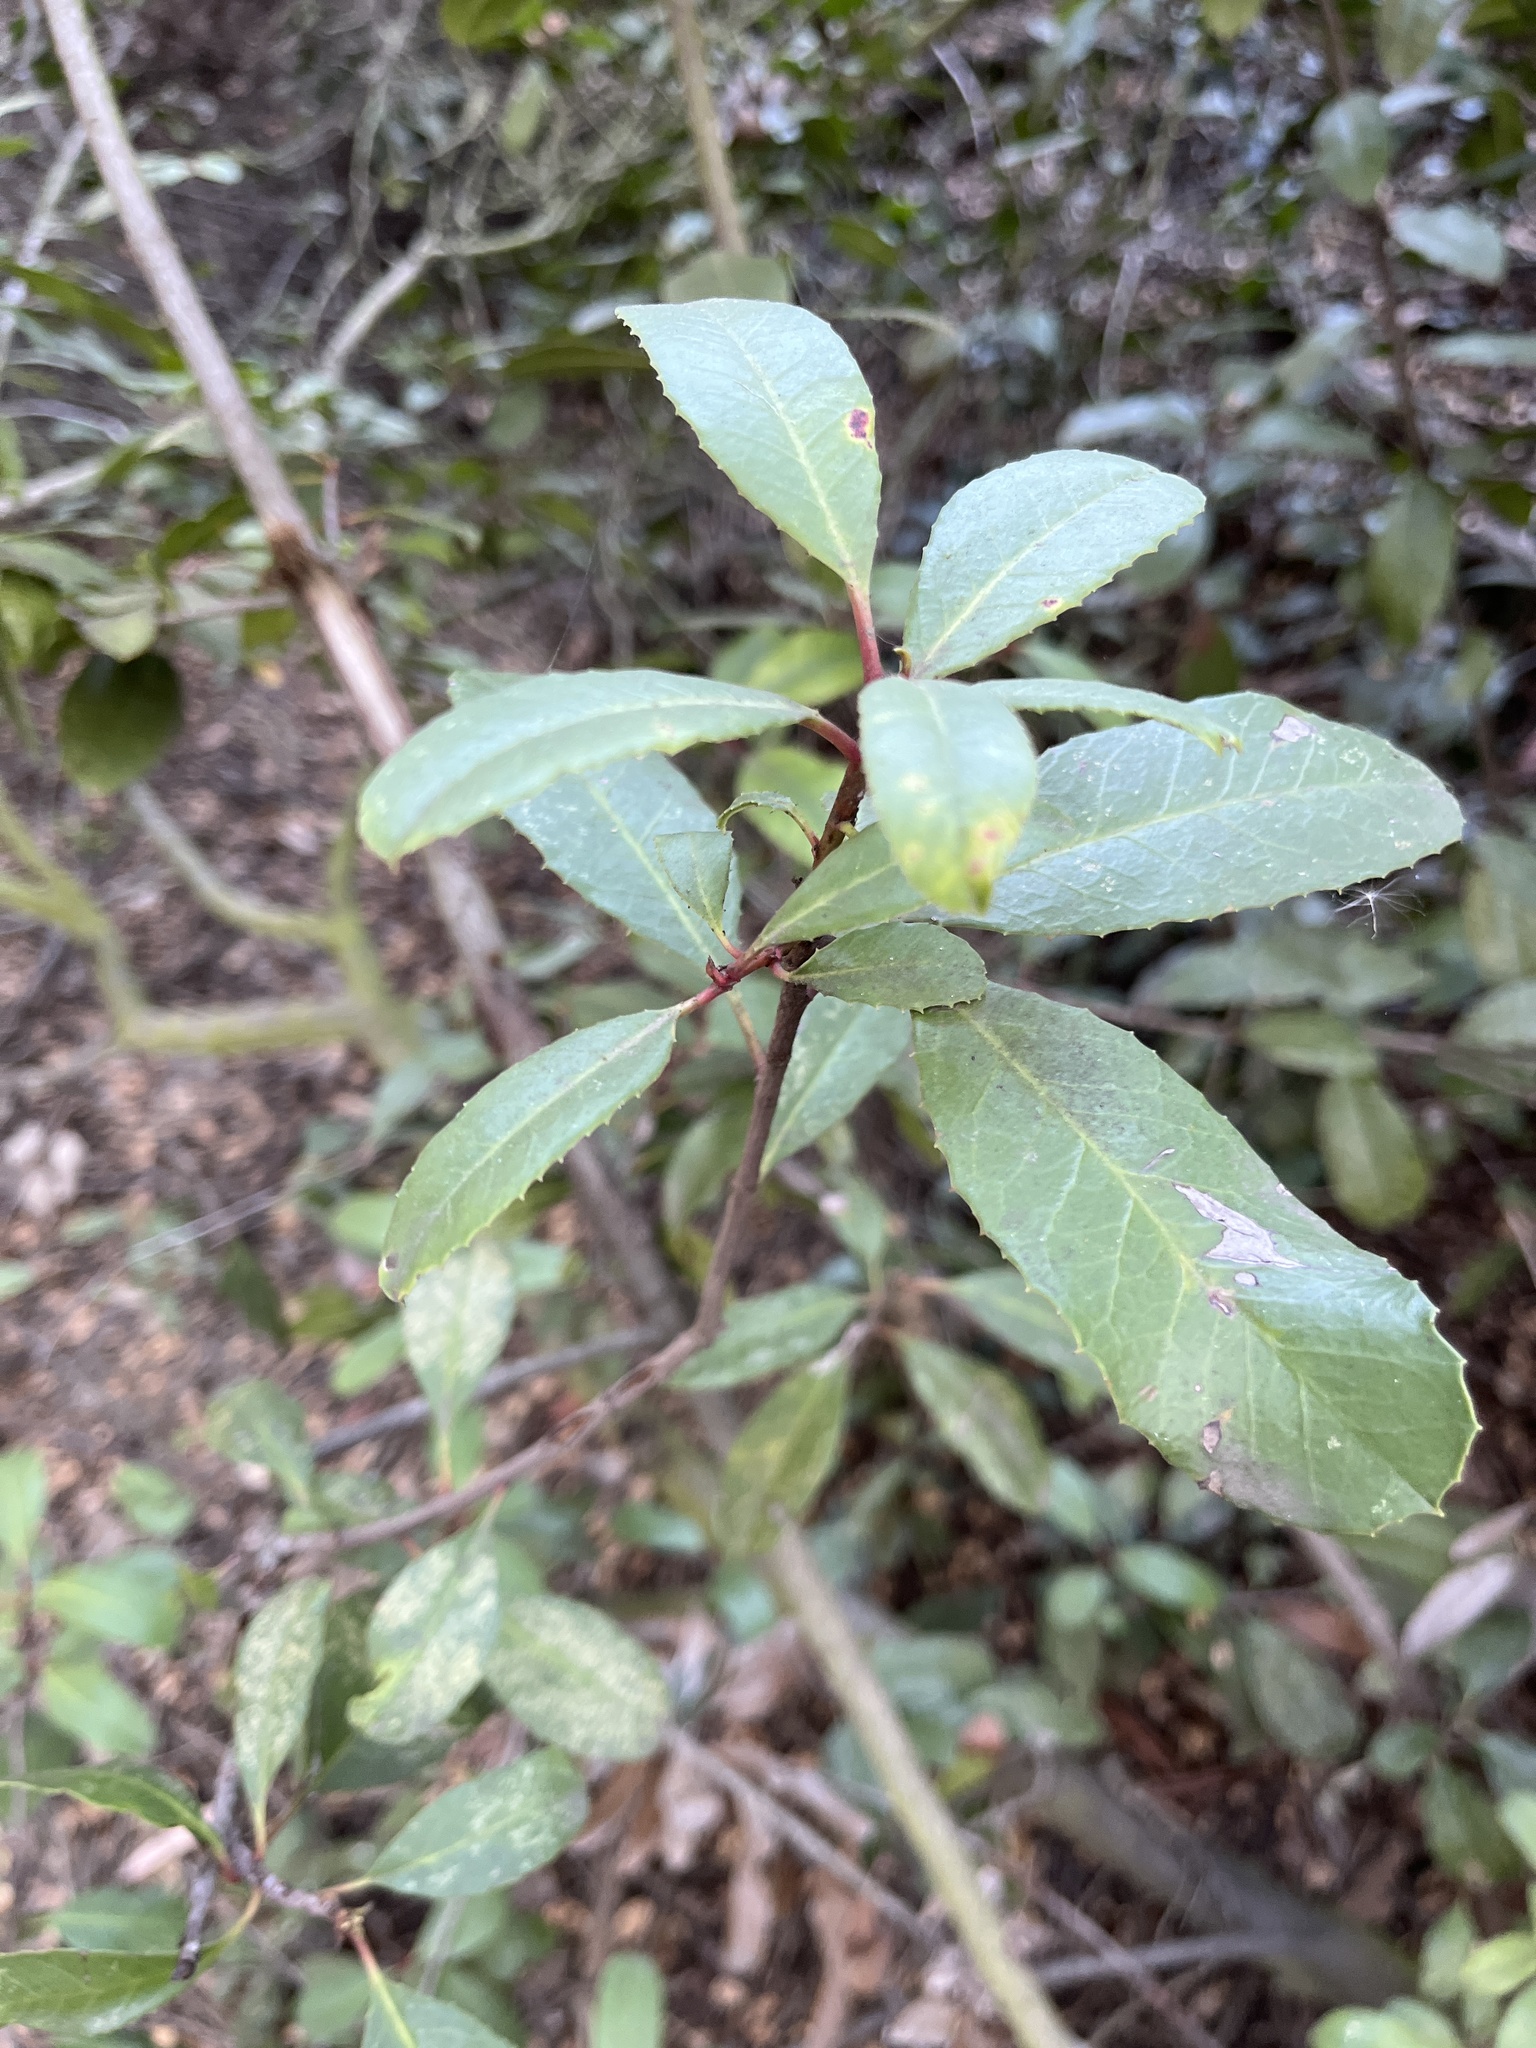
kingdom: Plantae
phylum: Tracheophyta
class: Magnoliopsida
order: Rosales
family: Rosaceae
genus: Heteromeles
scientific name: Heteromeles arbutifolia
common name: California-holly
